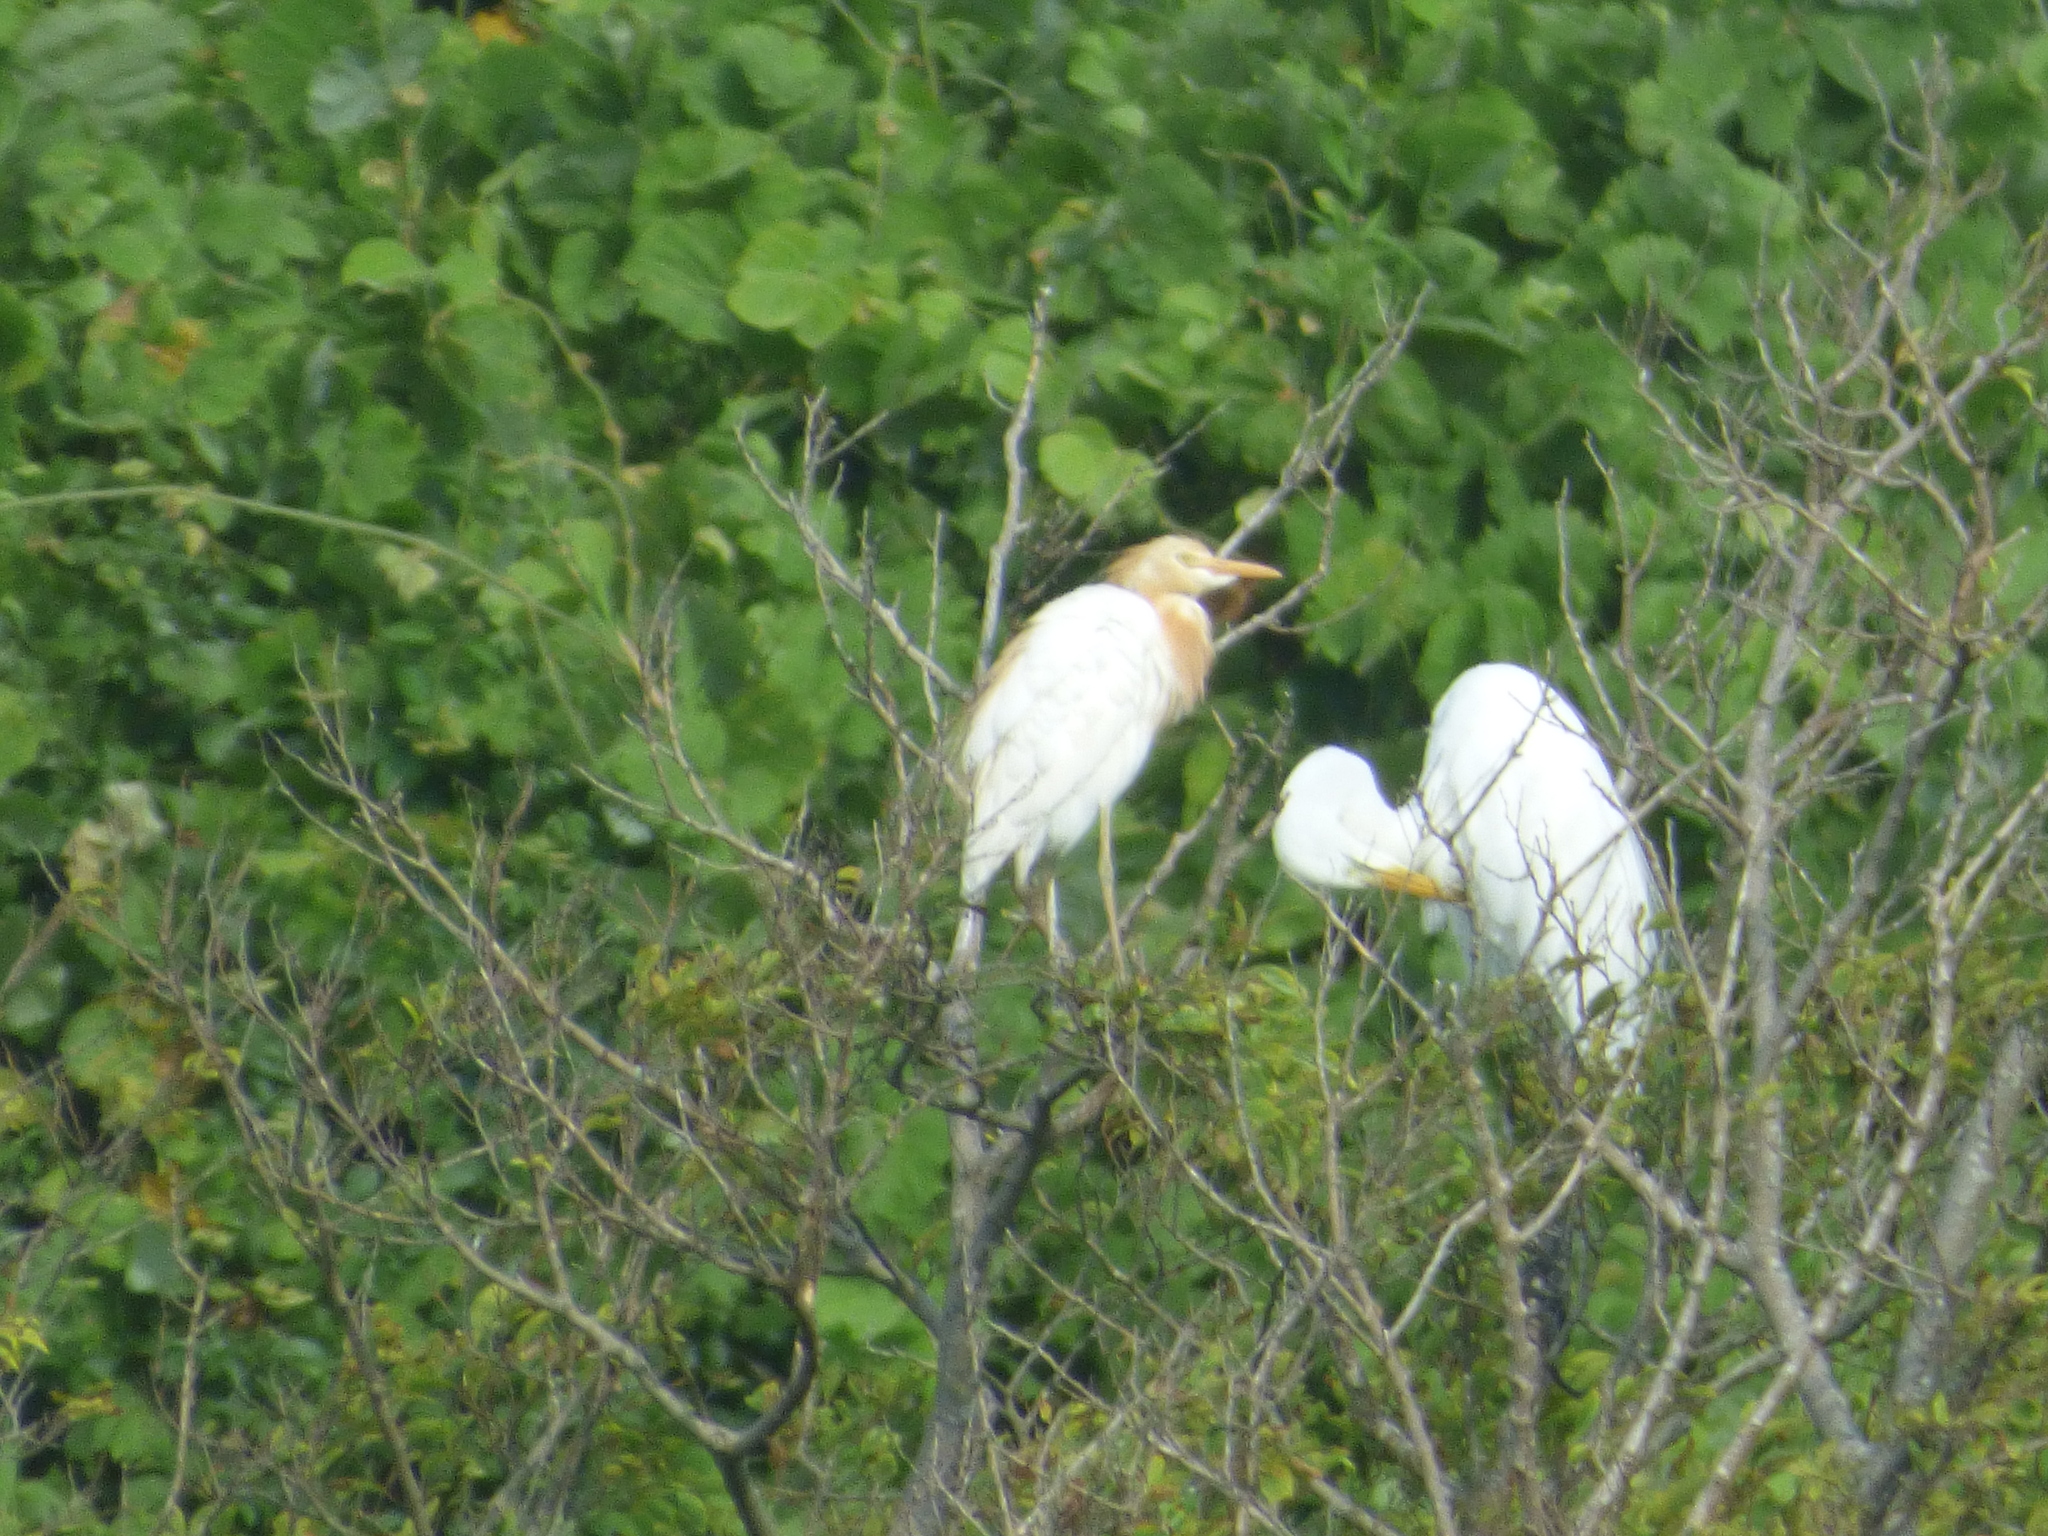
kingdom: Animalia
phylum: Chordata
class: Aves
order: Pelecaniformes
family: Ardeidae
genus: Bubulcus
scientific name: Bubulcus coromandus
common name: Eastern cattle egret
